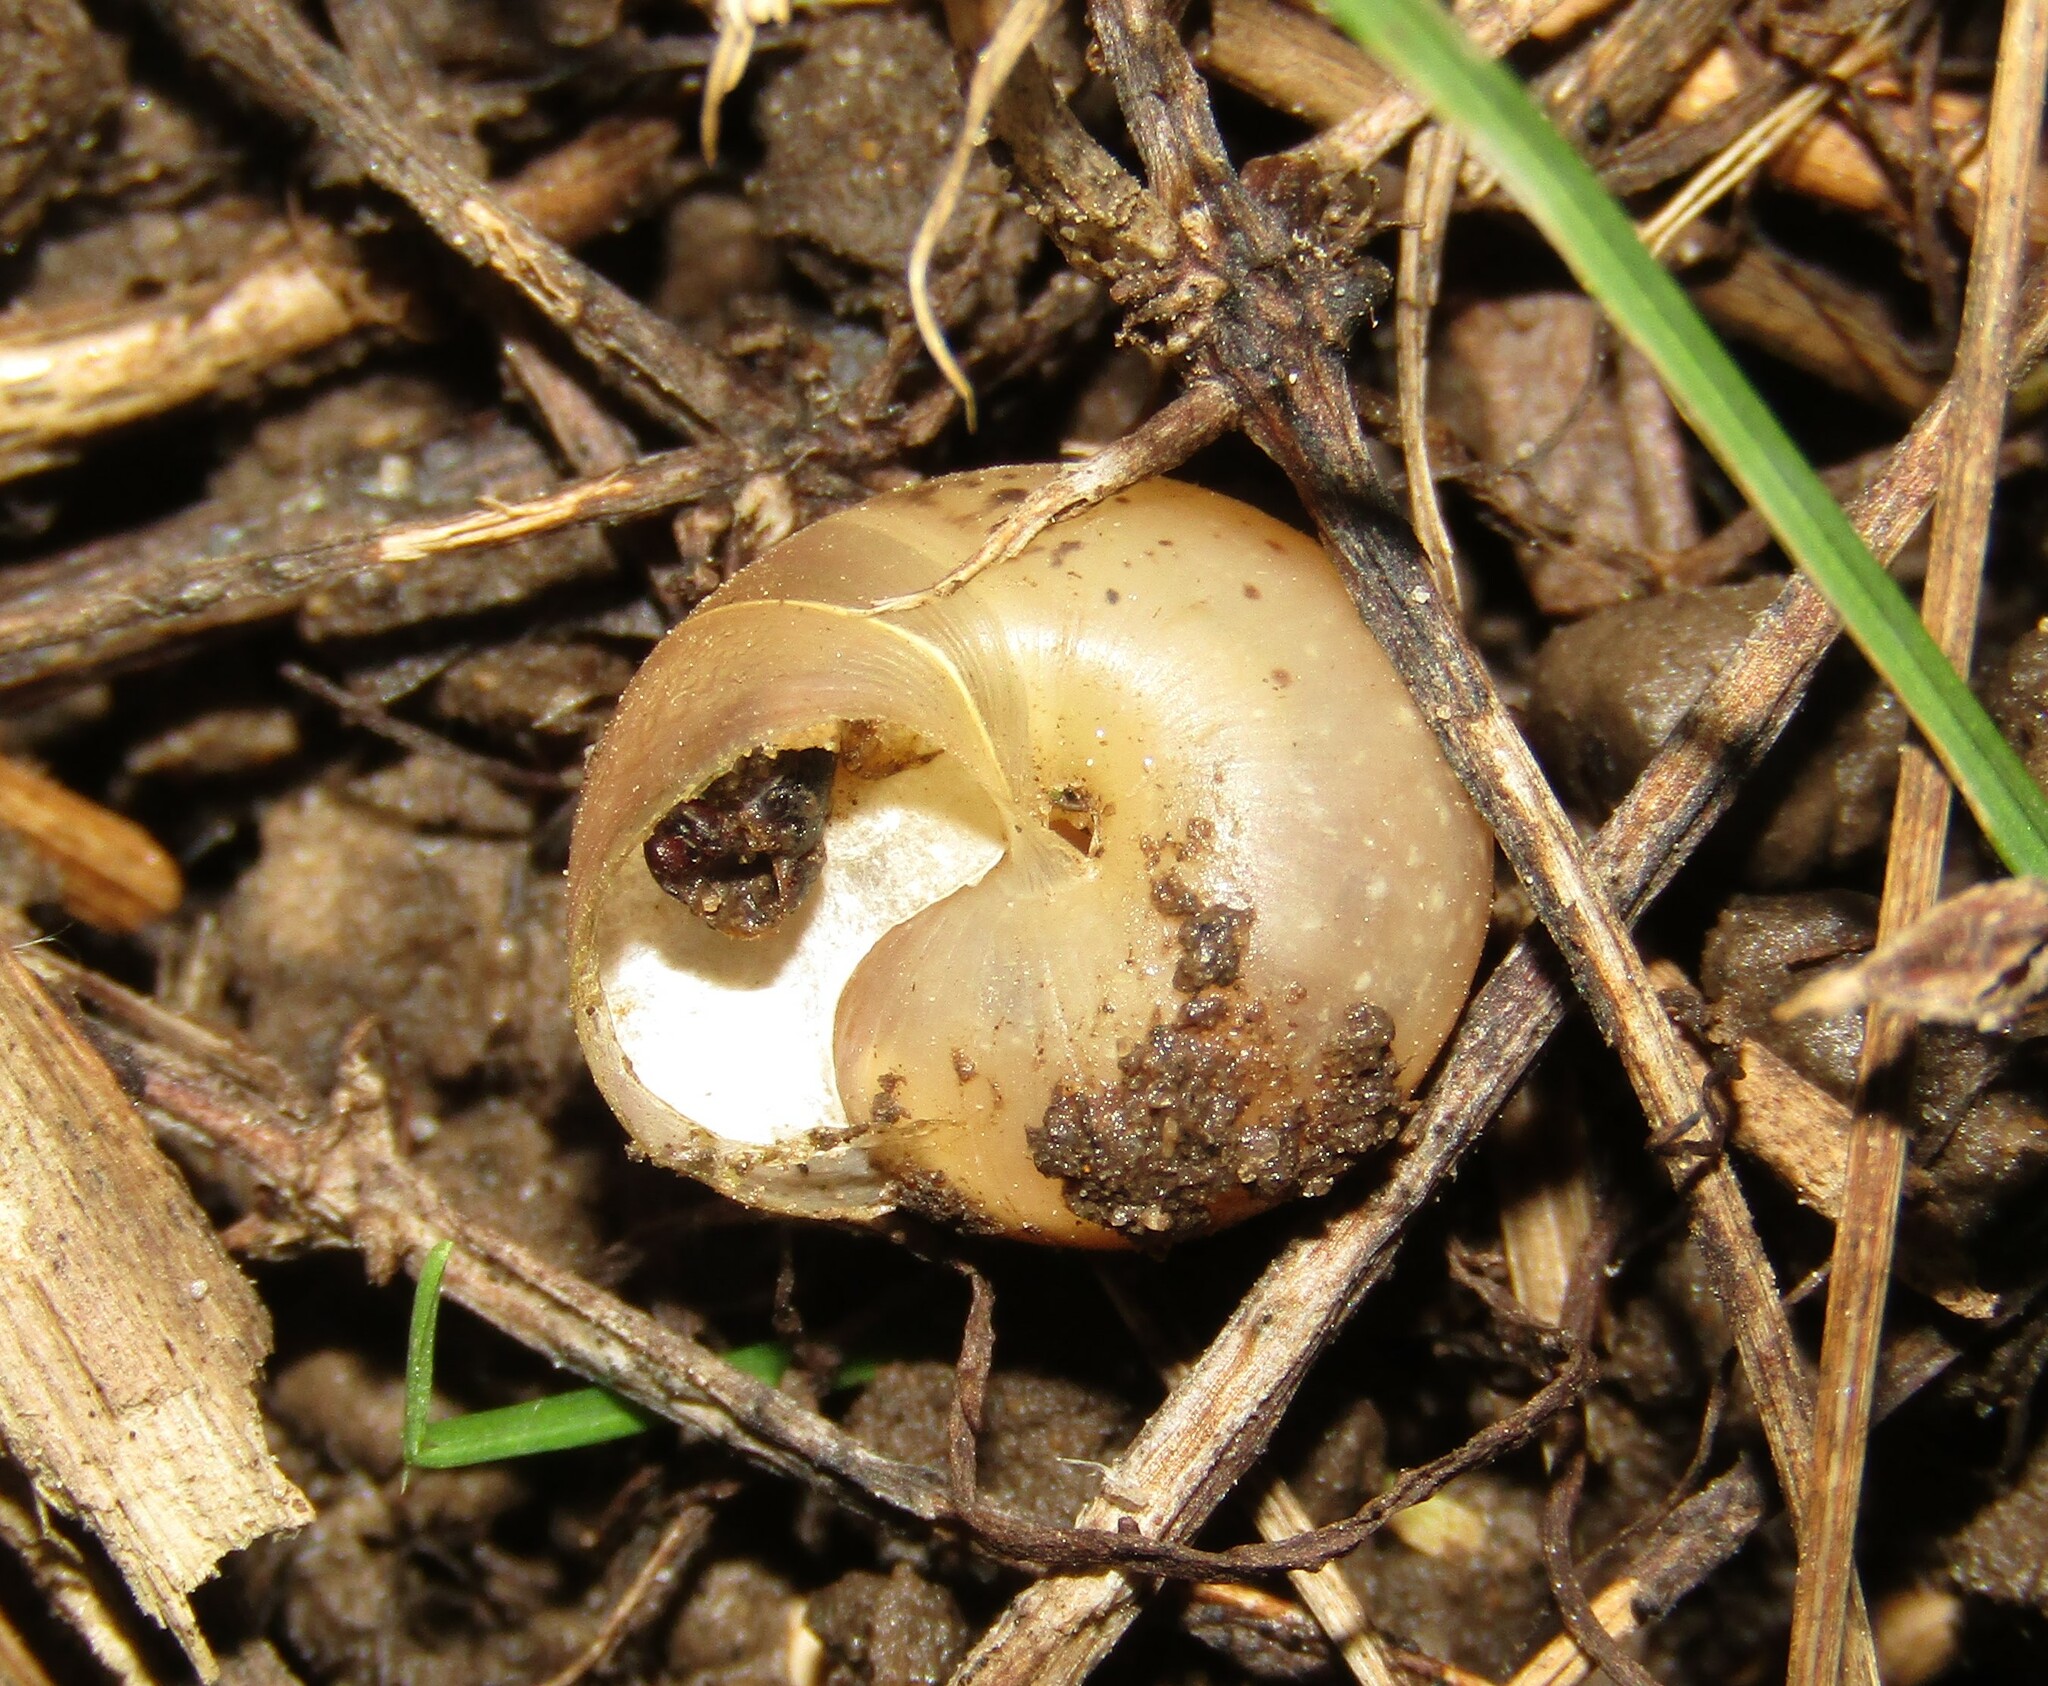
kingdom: Animalia
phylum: Mollusca
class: Gastropoda
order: Stylommatophora
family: Camaenidae
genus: Fruticicola
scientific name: Fruticicola fruticum
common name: Bush snail
